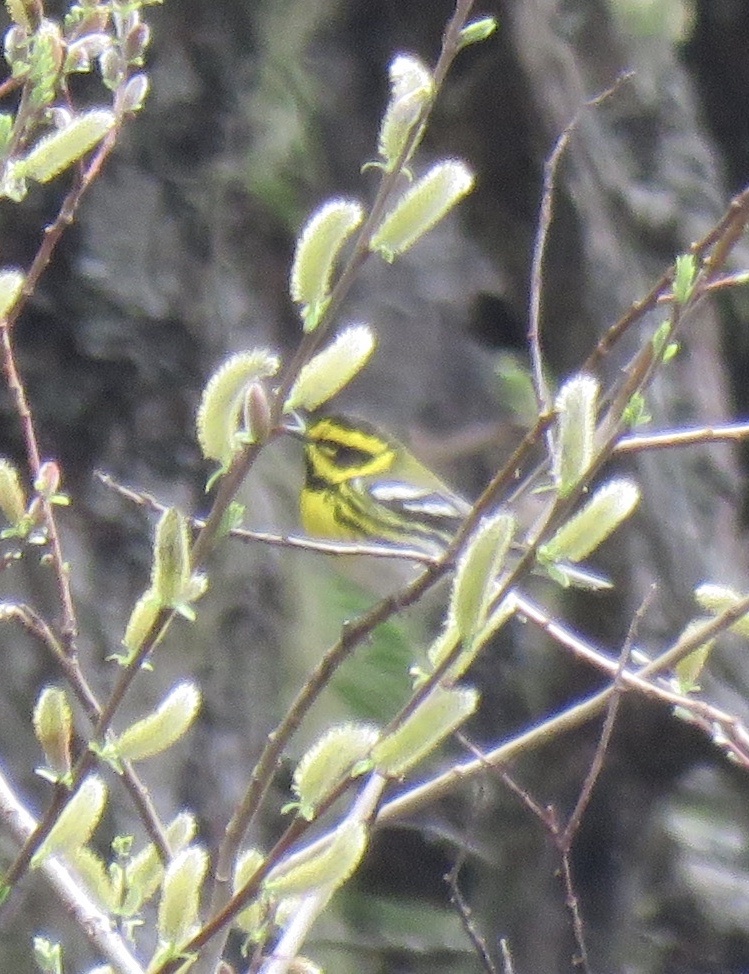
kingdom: Animalia
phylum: Chordata
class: Aves
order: Passeriformes
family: Parulidae
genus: Setophaga
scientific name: Setophaga townsendi
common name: Townsend's warbler
